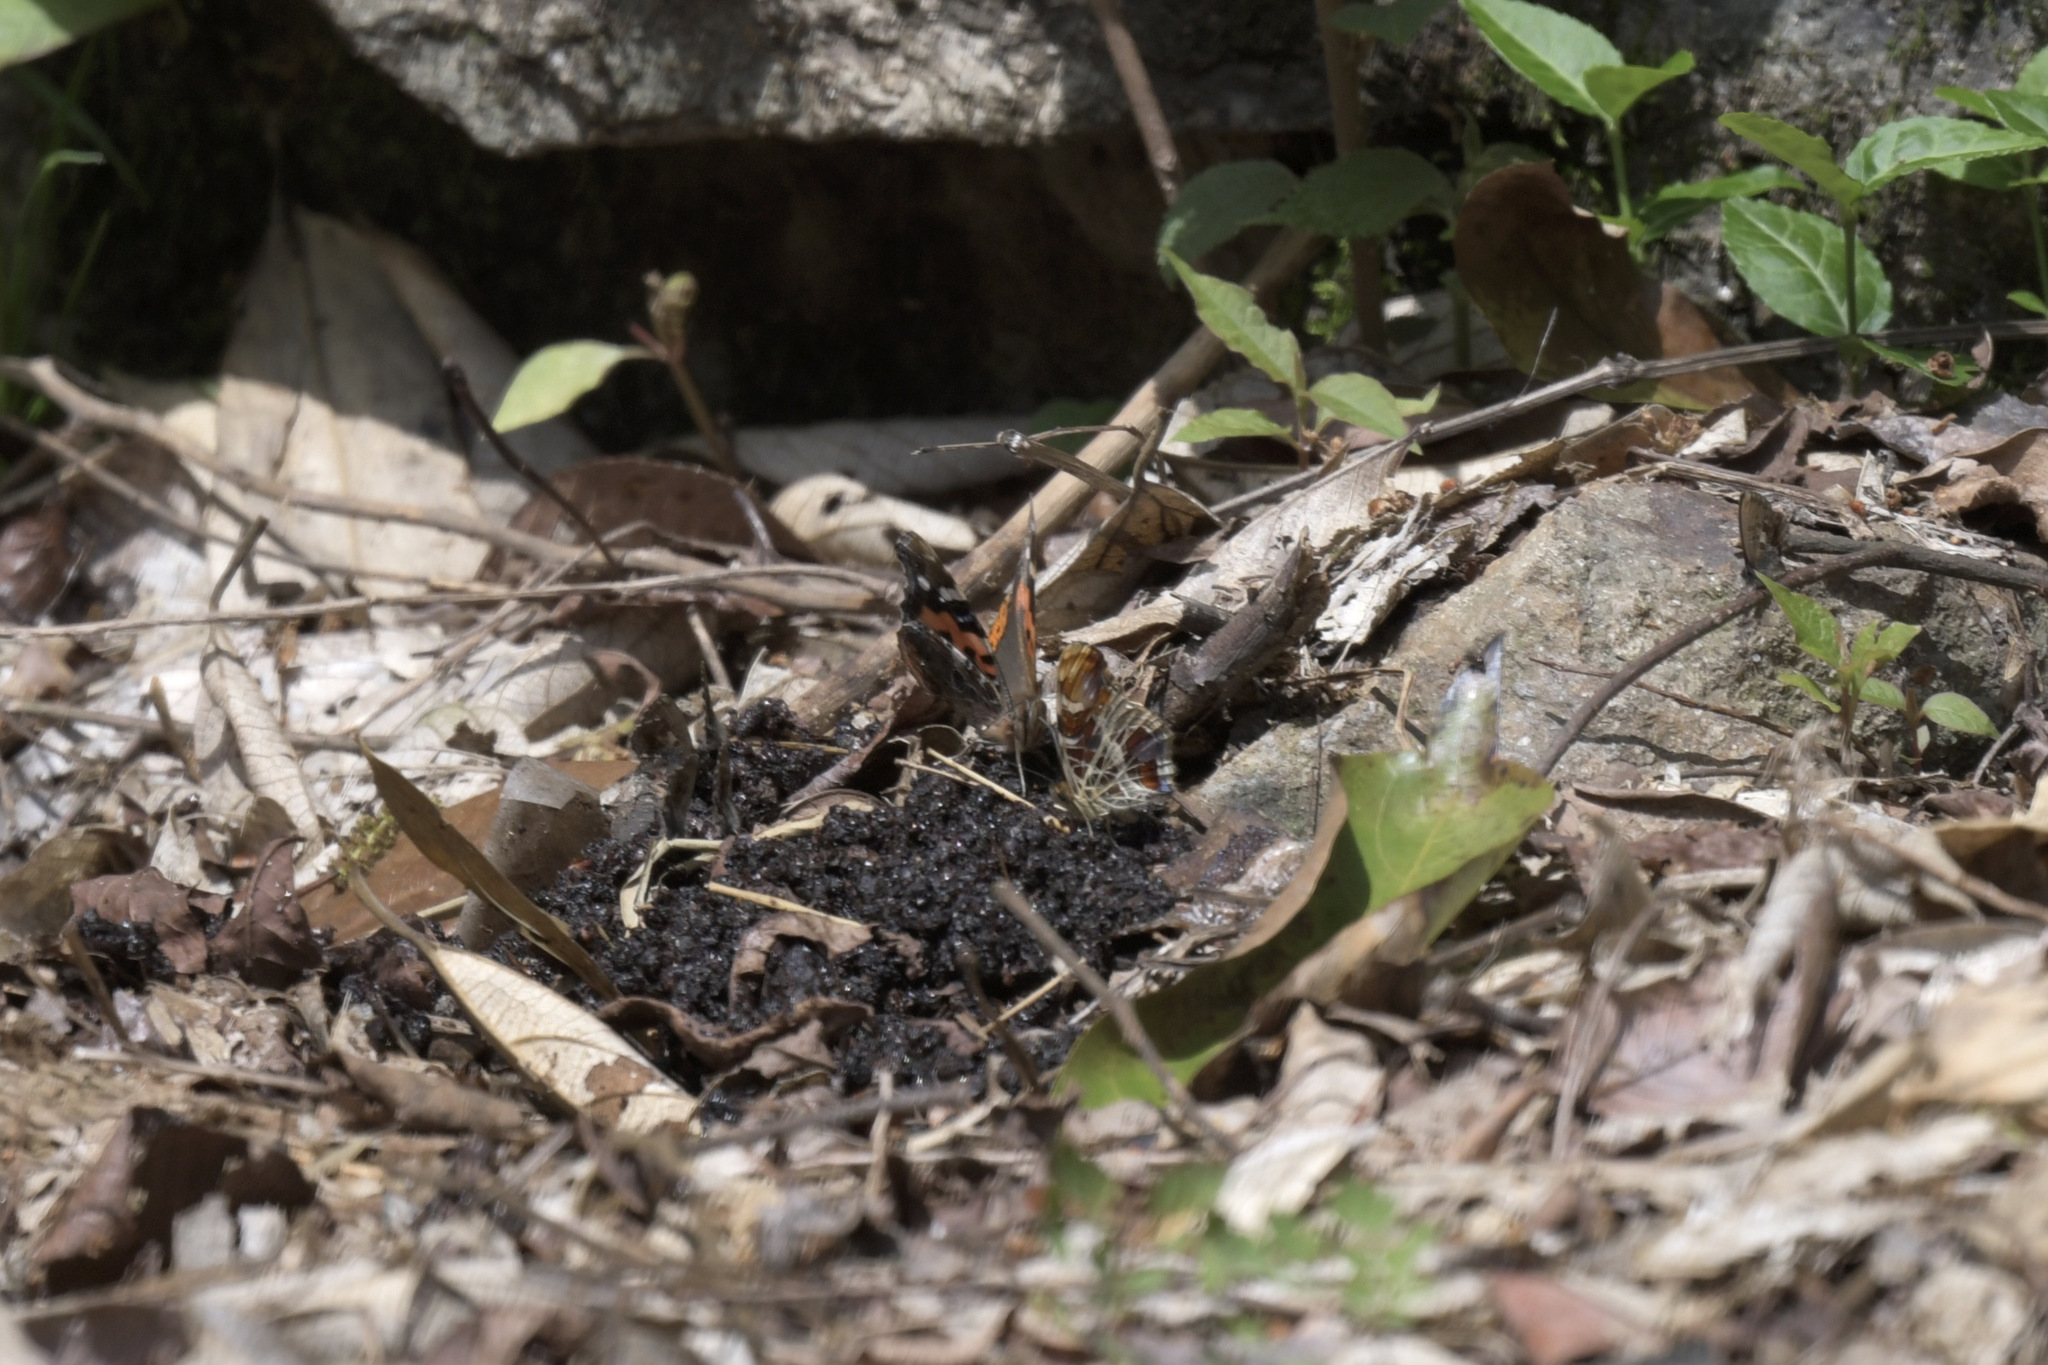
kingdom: Animalia
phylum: Arthropoda
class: Insecta
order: Lepidoptera
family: Nymphalidae
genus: Vanessa
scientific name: Vanessa indica
